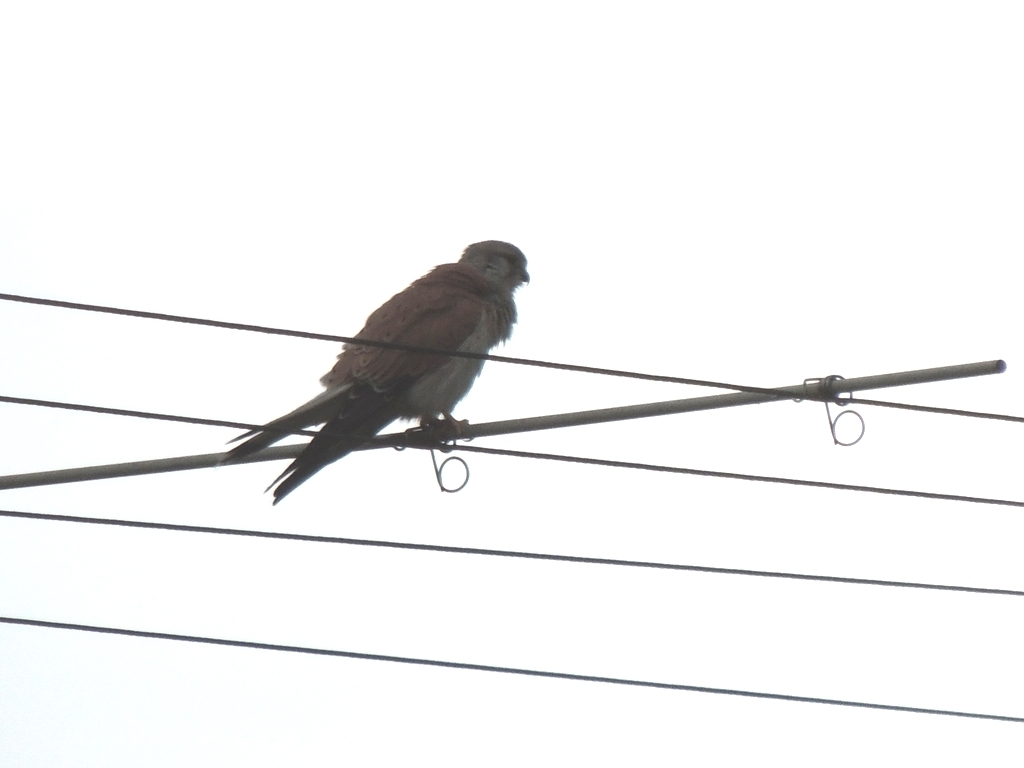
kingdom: Animalia
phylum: Chordata
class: Aves
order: Falconiformes
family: Falconidae
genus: Falco
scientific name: Falco cenchroides
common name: Nankeen kestrel
